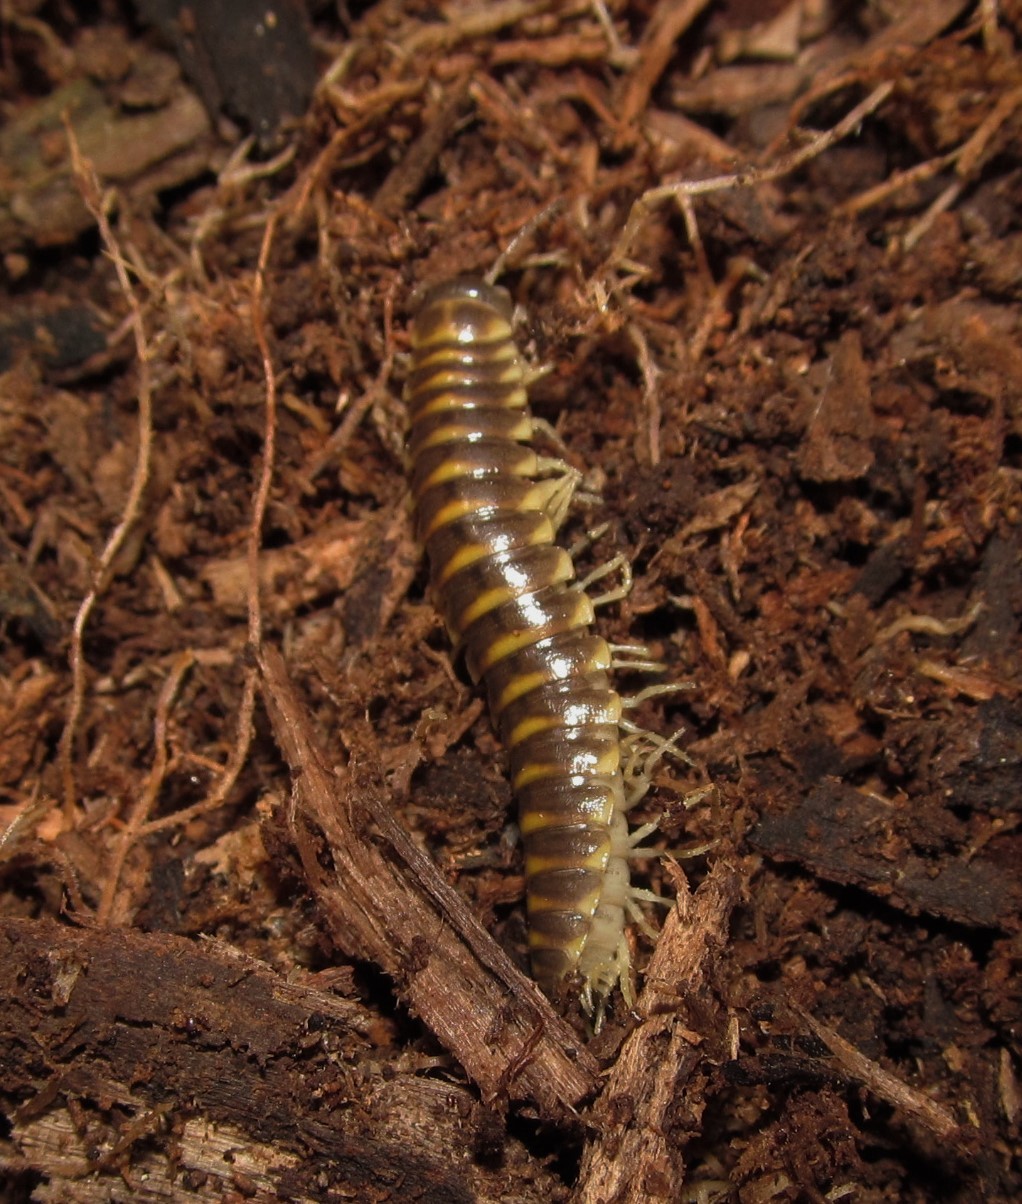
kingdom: Animalia
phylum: Arthropoda
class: Diplopoda
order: Polydesmida
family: Xystodesmidae
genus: Pleuroloma
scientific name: Pleuroloma flavipes
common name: Yellow-legged pleuroloma
